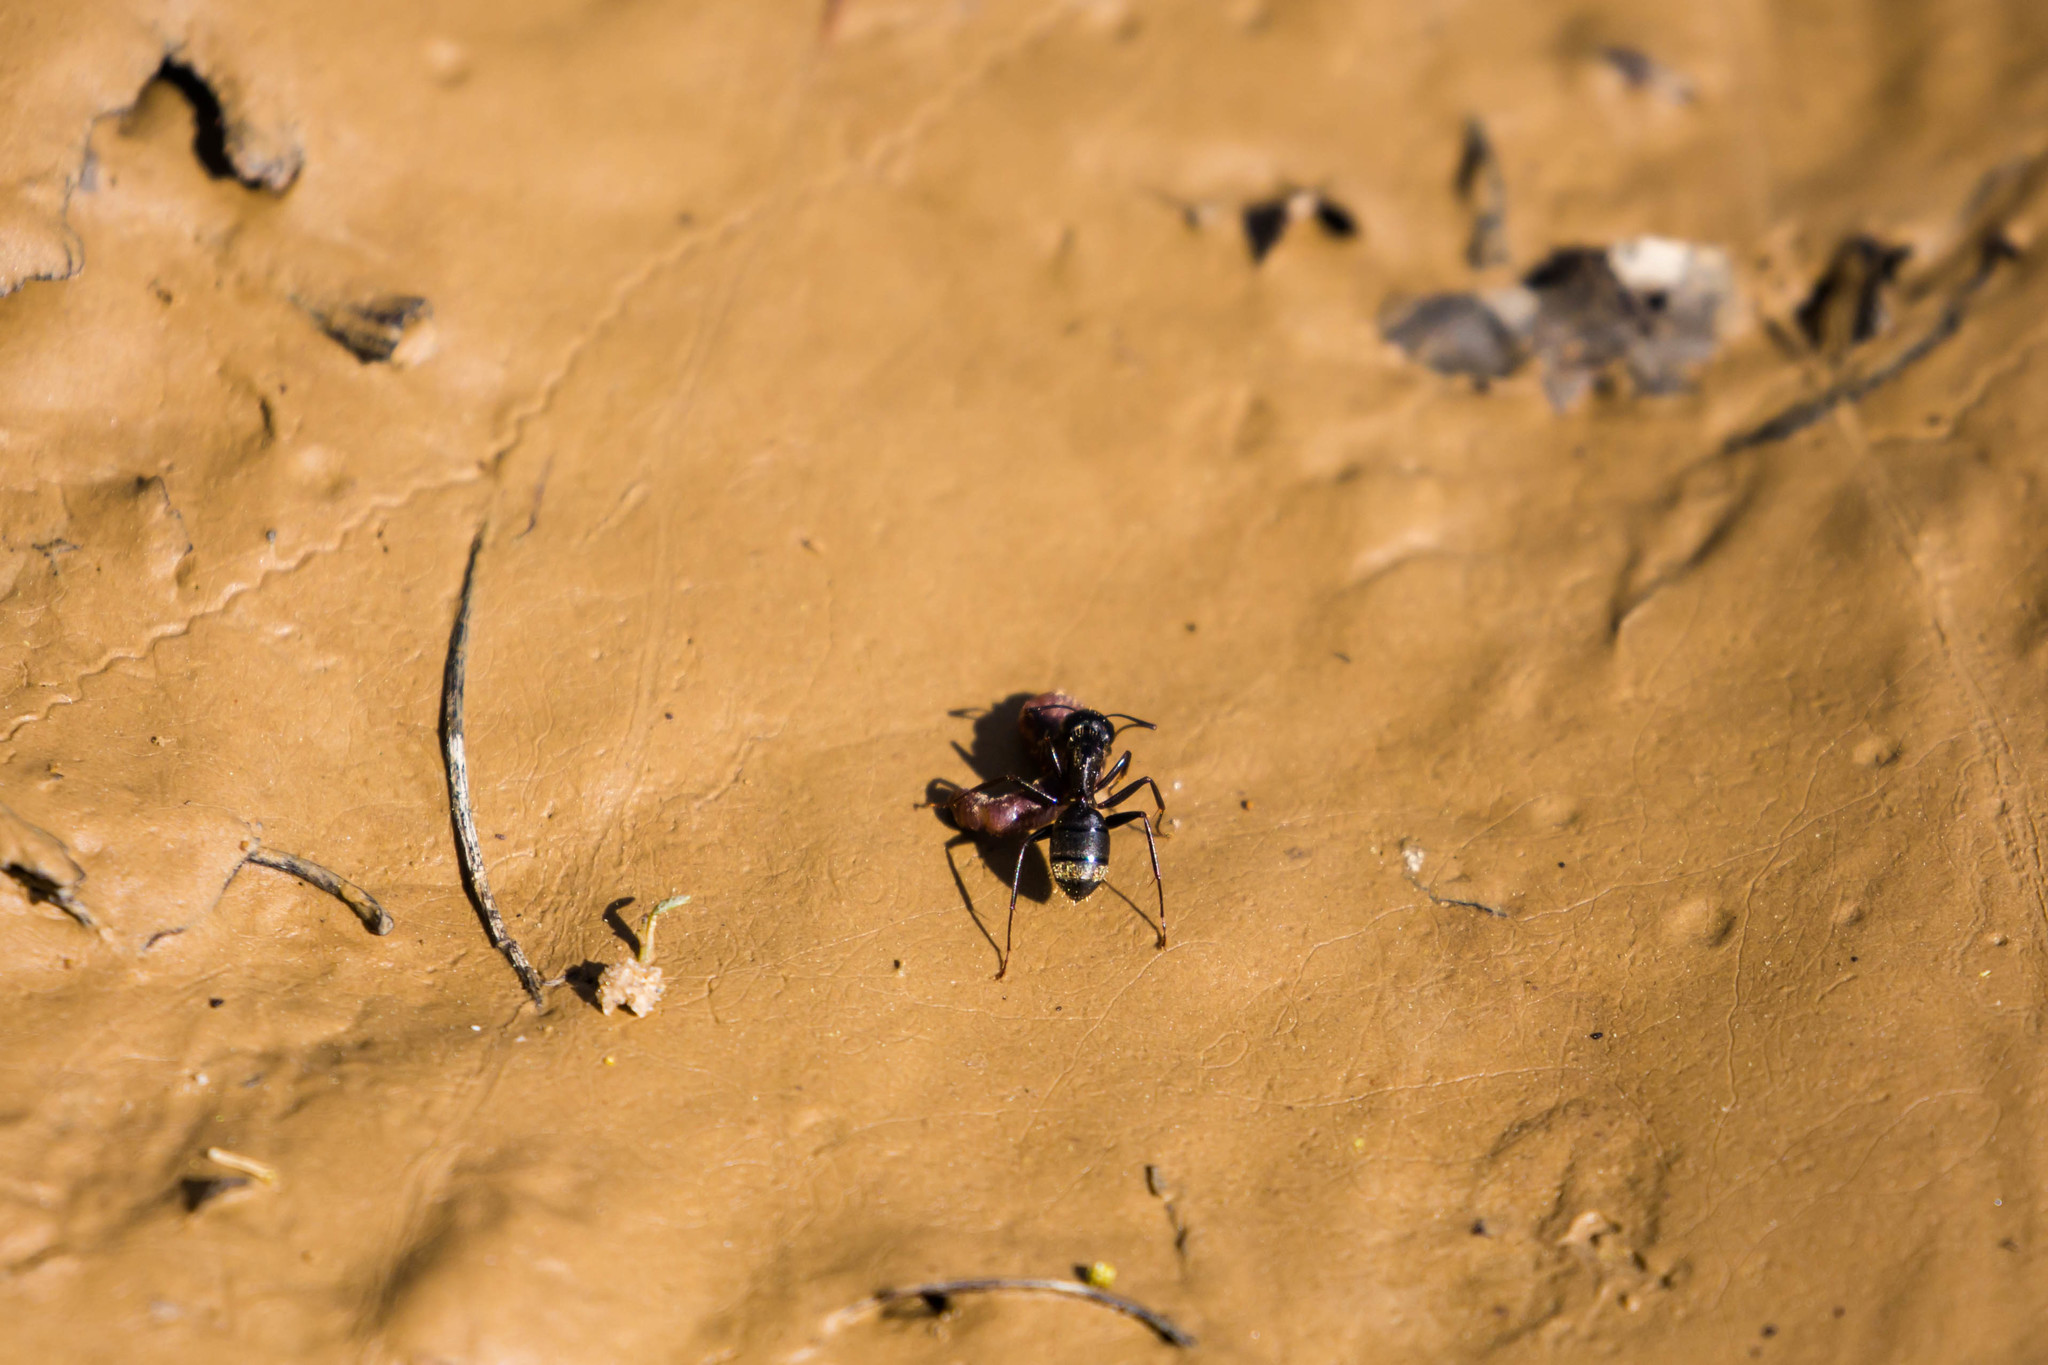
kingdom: Animalia
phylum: Arthropoda
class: Insecta
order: Hymenoptera
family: Formicidae
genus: Camponotus
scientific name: Camponotus pennsylvanicus
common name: Black carpenter ant
